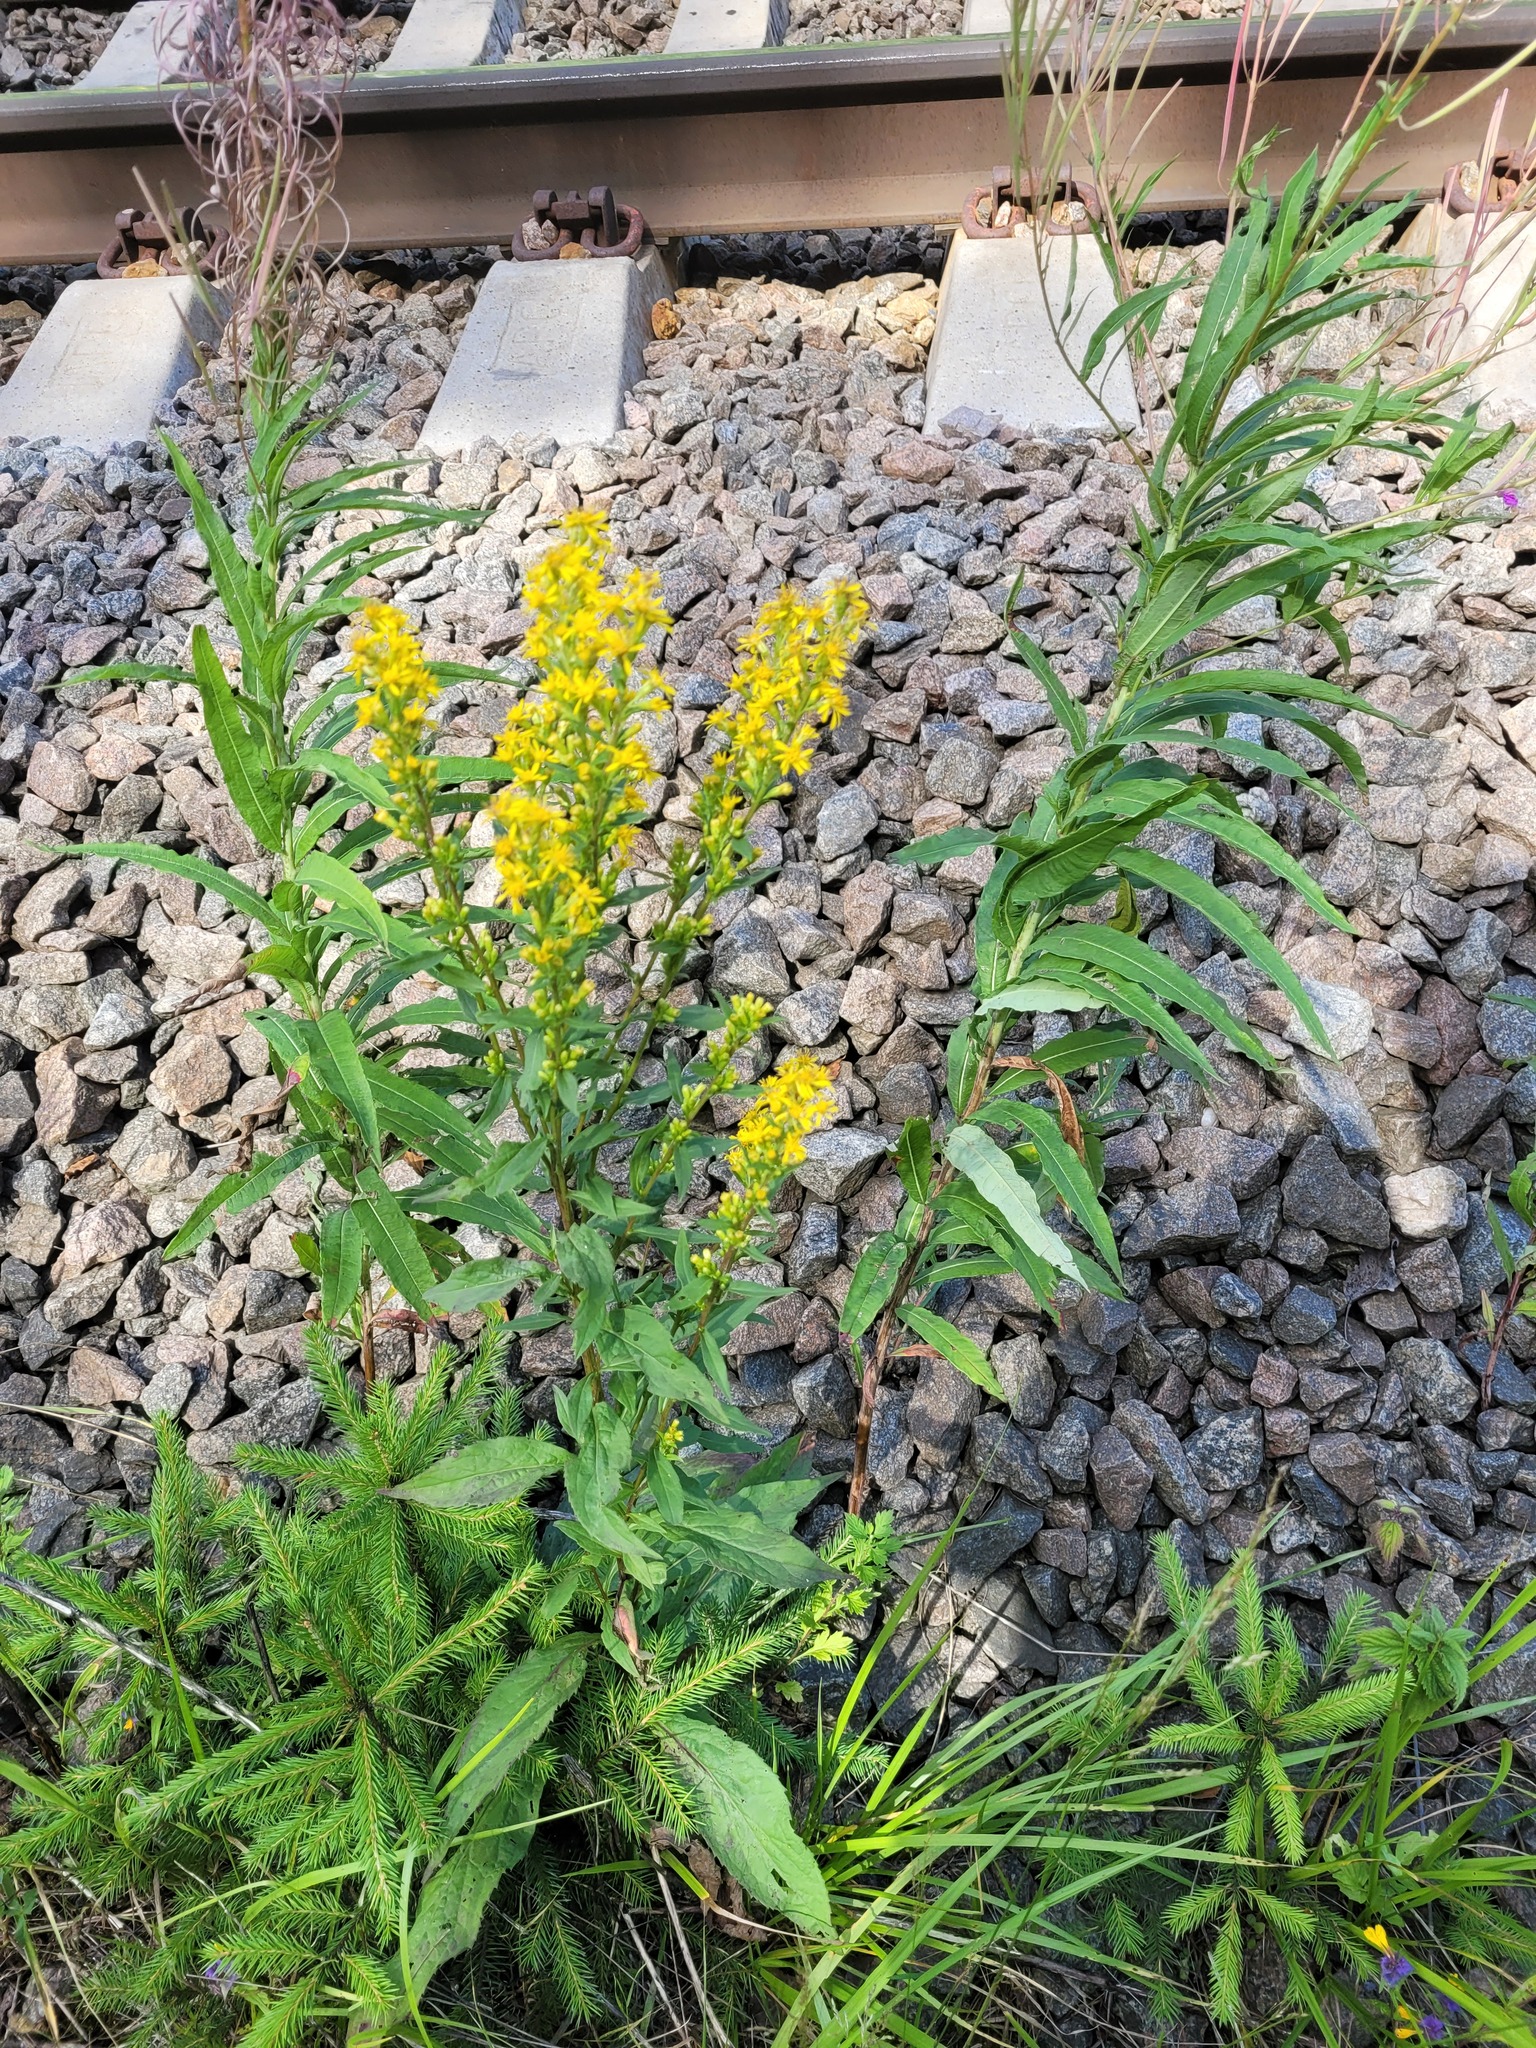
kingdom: Plantae
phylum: Tracheophyta
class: Magnoliopsida
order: Asterales
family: Asteraceae
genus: Solidago
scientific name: Solidago virgaurea
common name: Goldenrod
